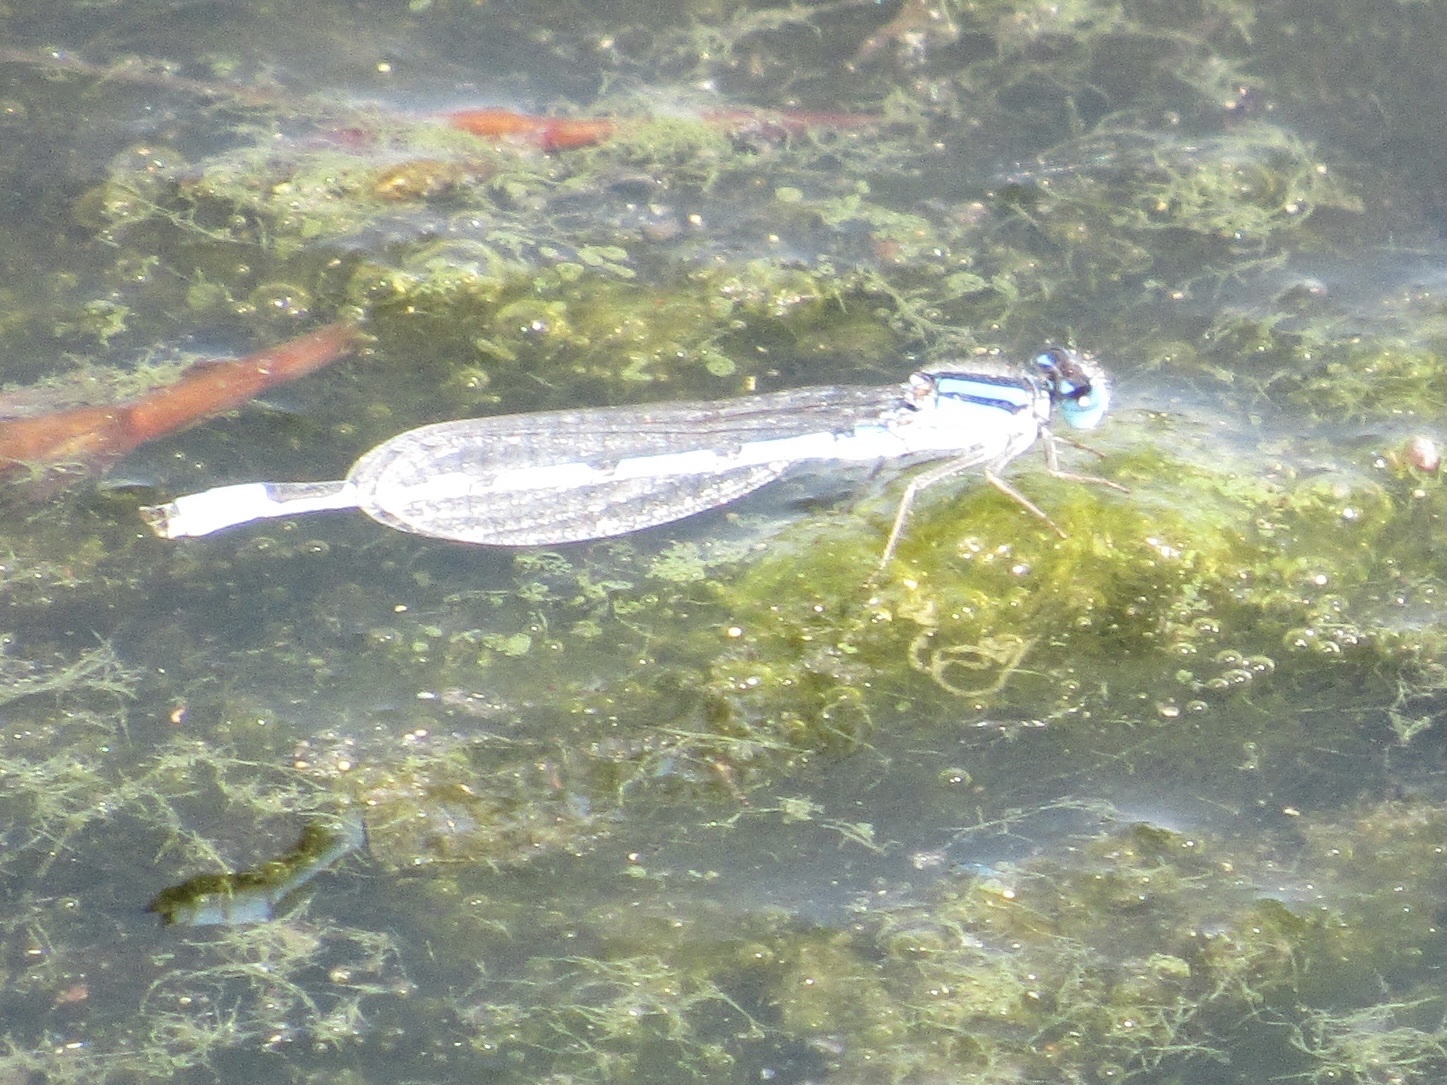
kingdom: Animalia
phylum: Arthropoda
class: Insecta
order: Odonata
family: Coenagrionidae
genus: Enallagma
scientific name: Enallagma civile
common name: Damselfly
